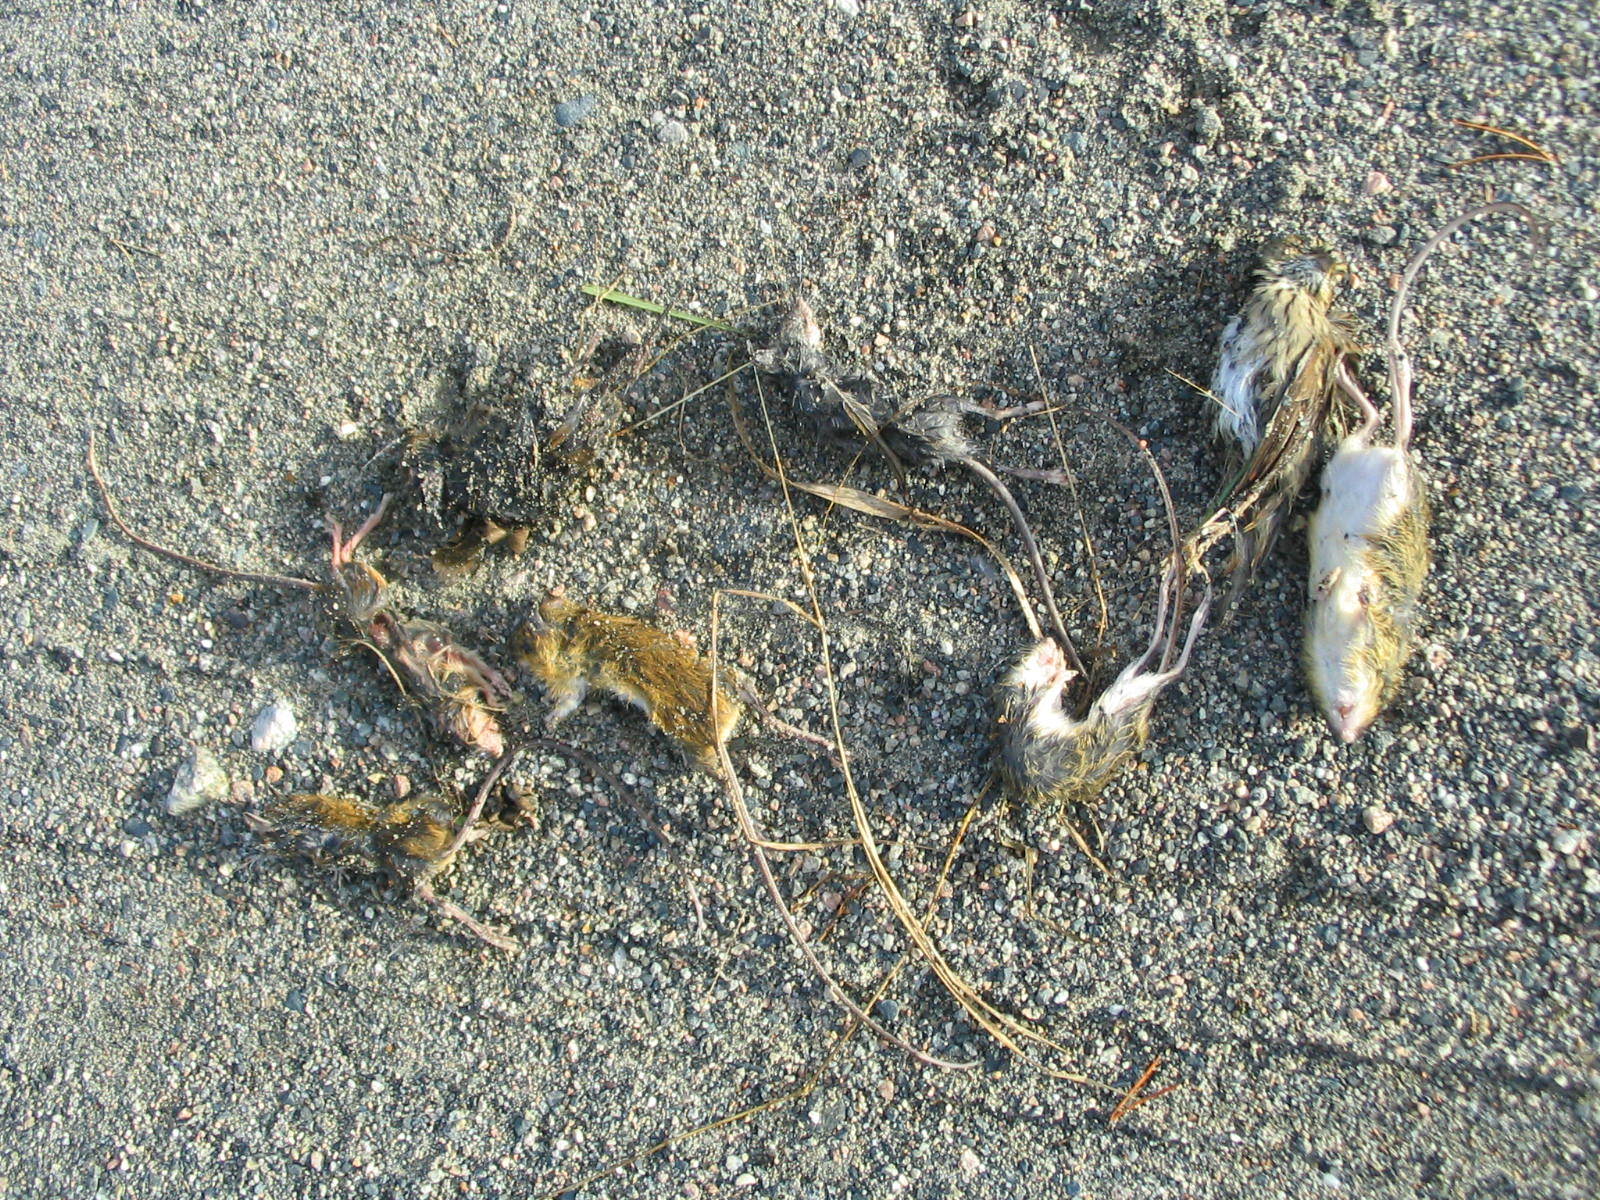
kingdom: Animalia
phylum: Chordata
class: Mammalia
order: Rodentia
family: Dipodidae
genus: Zapus
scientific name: Zapus hudsonius
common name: Meadow jumping mouse
